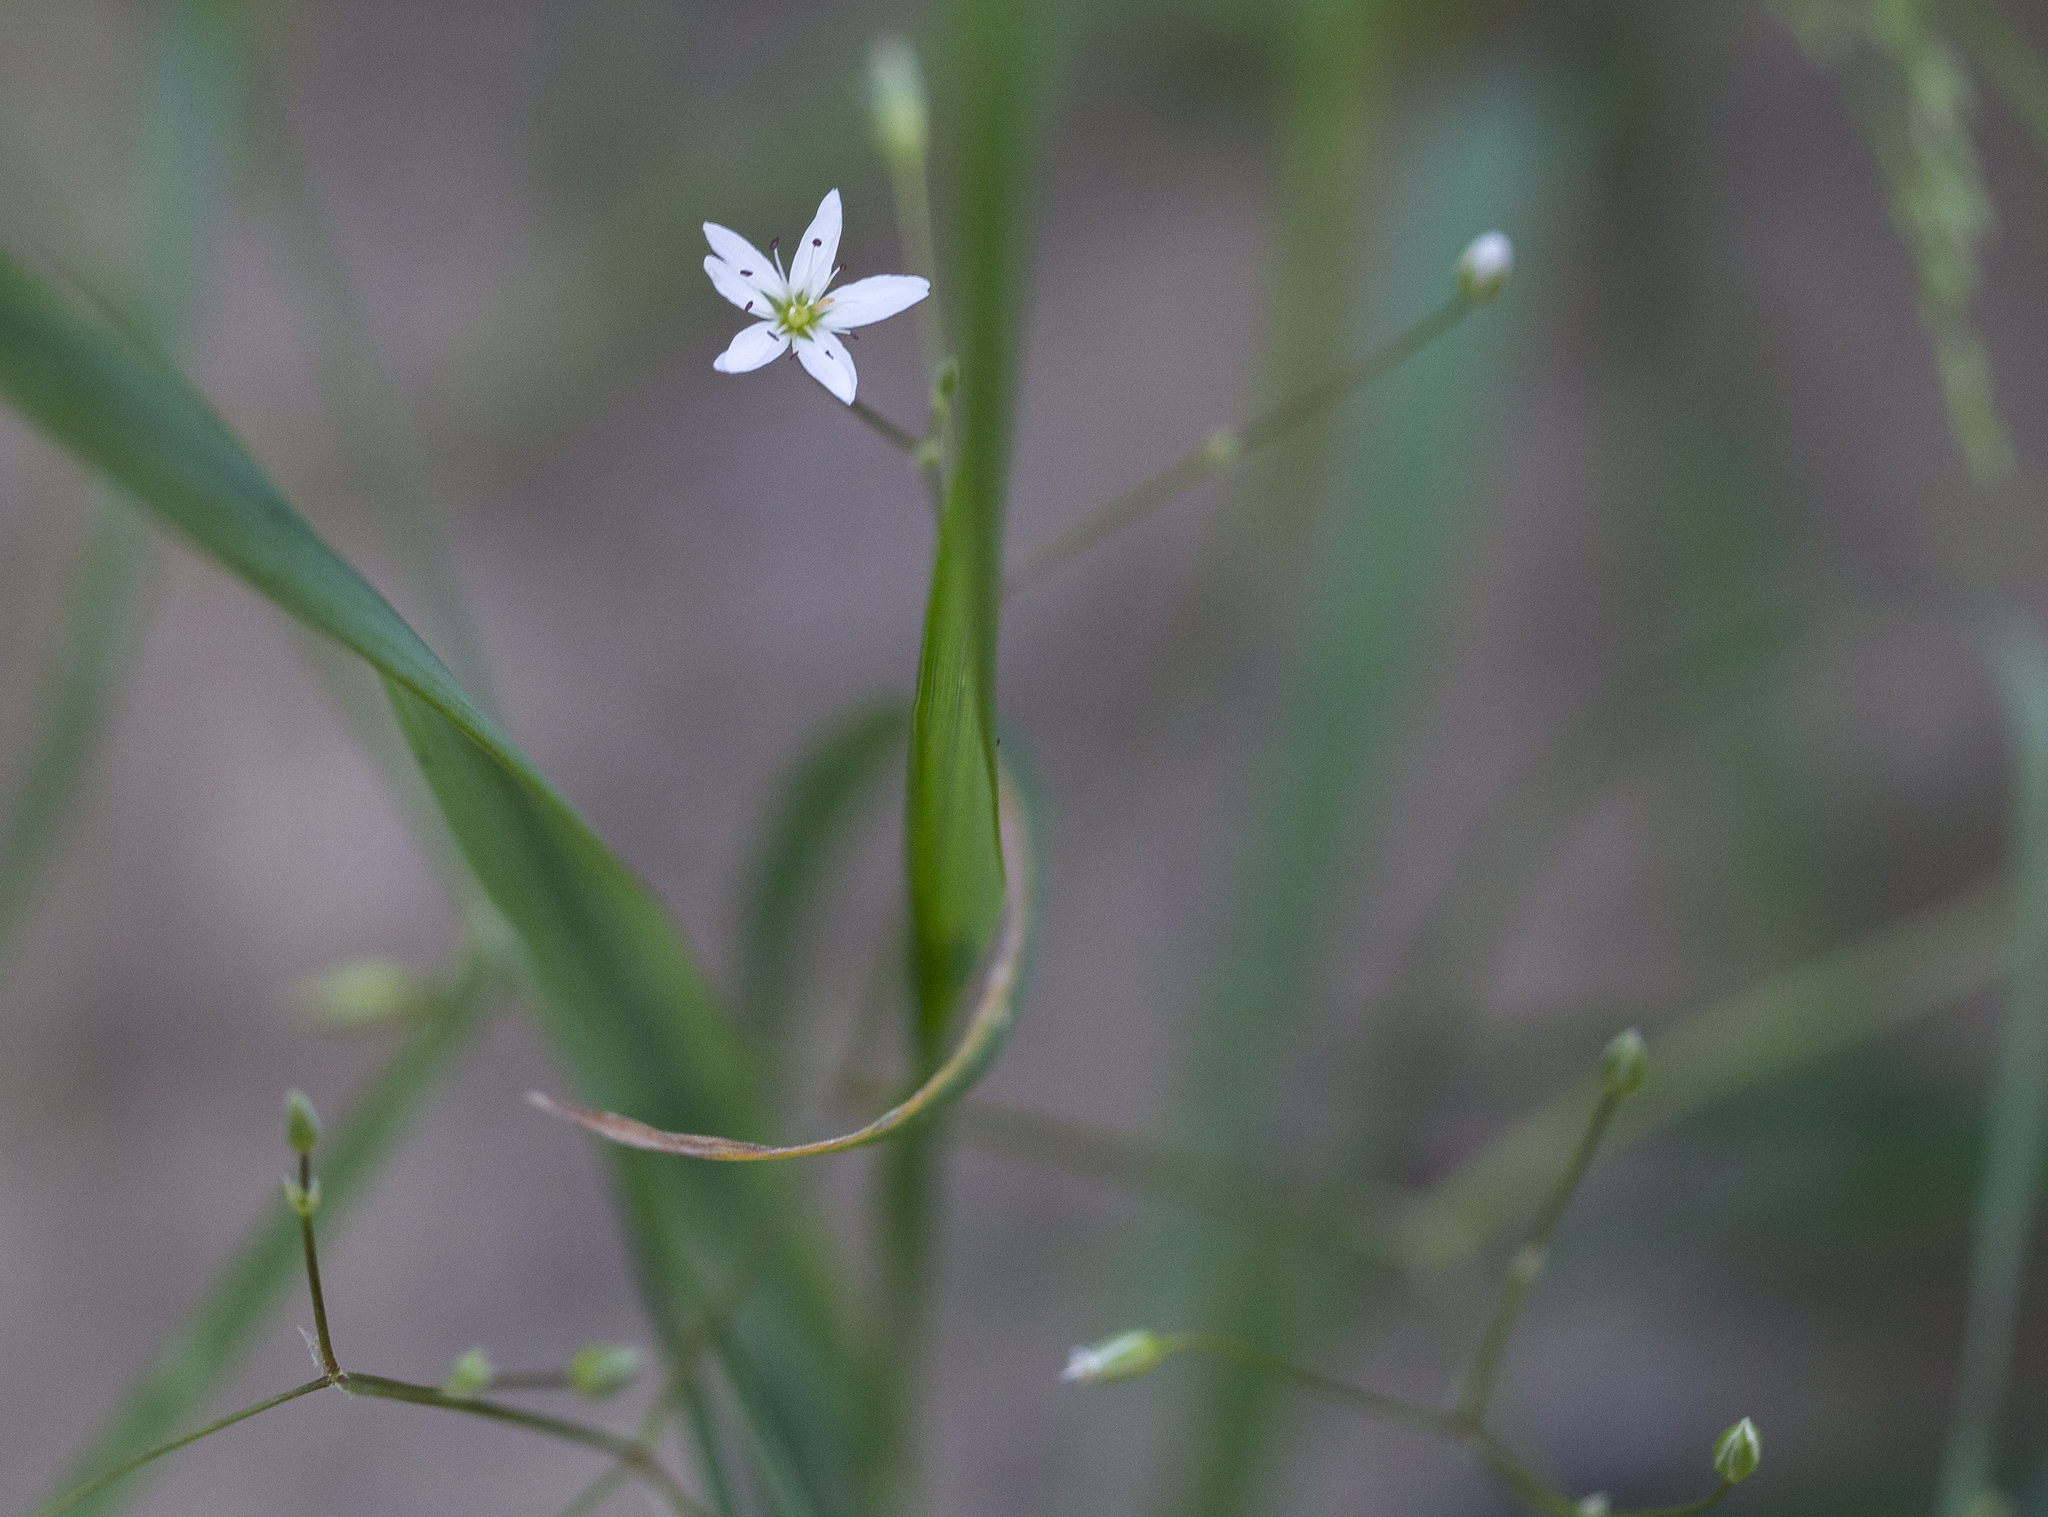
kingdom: Plantae
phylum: Tracheophyta
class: Magnoliopsida
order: Caryophyllales
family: Caryophyllaceae
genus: Stellaria
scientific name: Stellaria graminea
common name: Grass-like starwort
